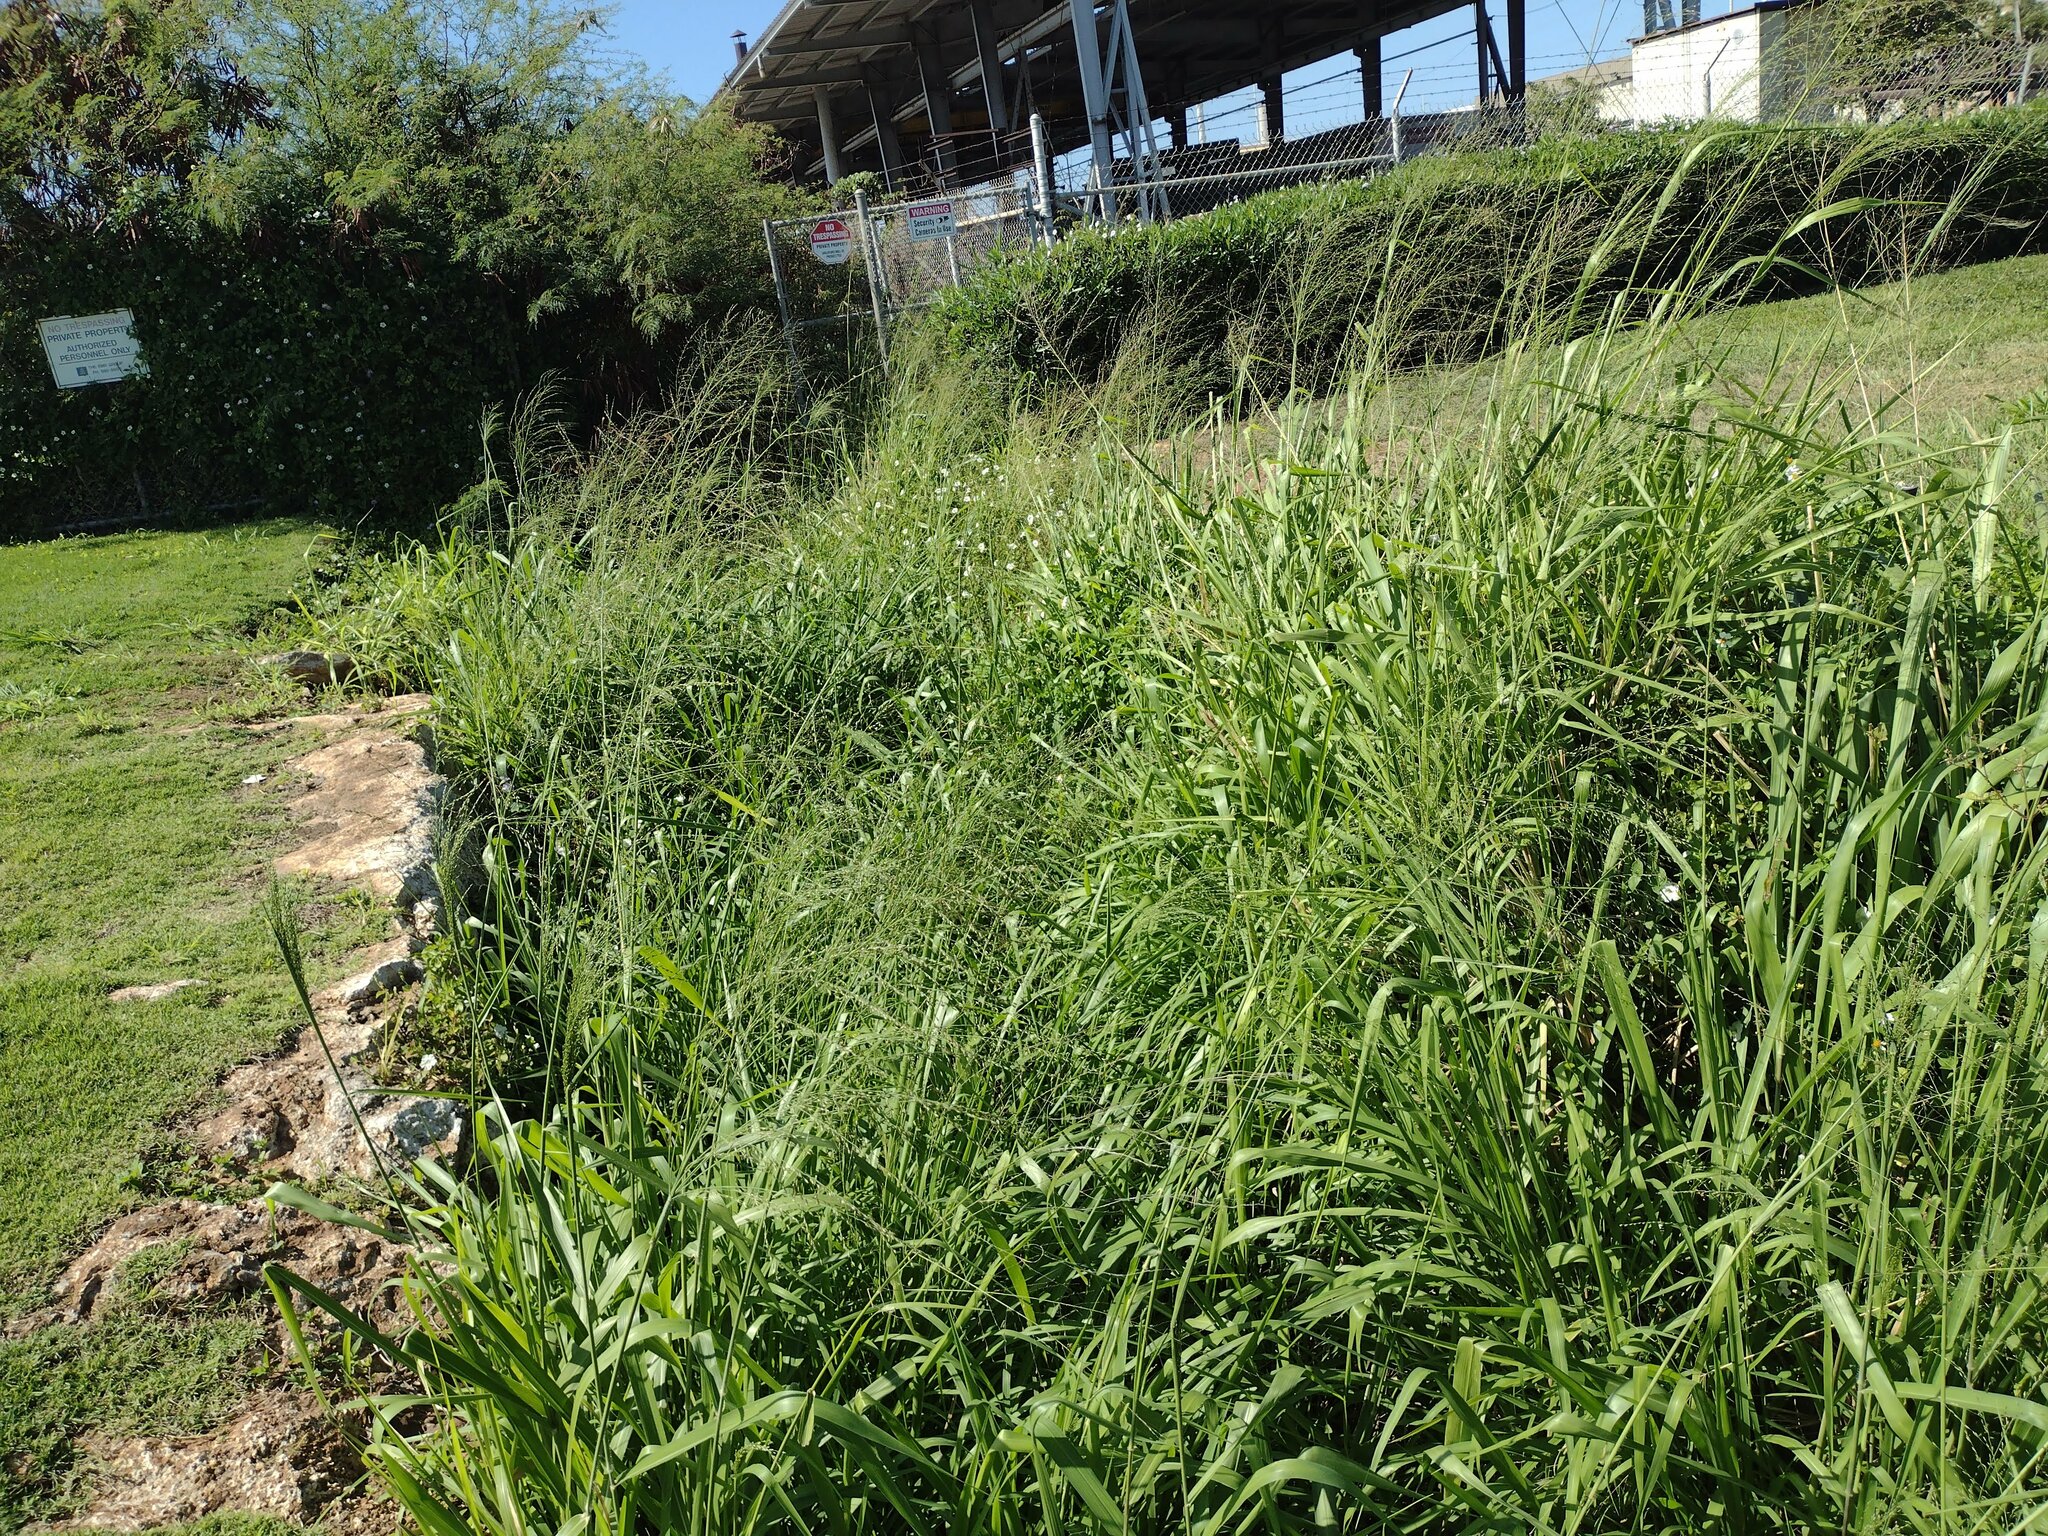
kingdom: Plantae
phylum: Tracheophyta
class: Liliopsida
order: Poales
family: Poaceae
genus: Megathyrsus
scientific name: Megathyrsus maximus
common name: Guineagrass
